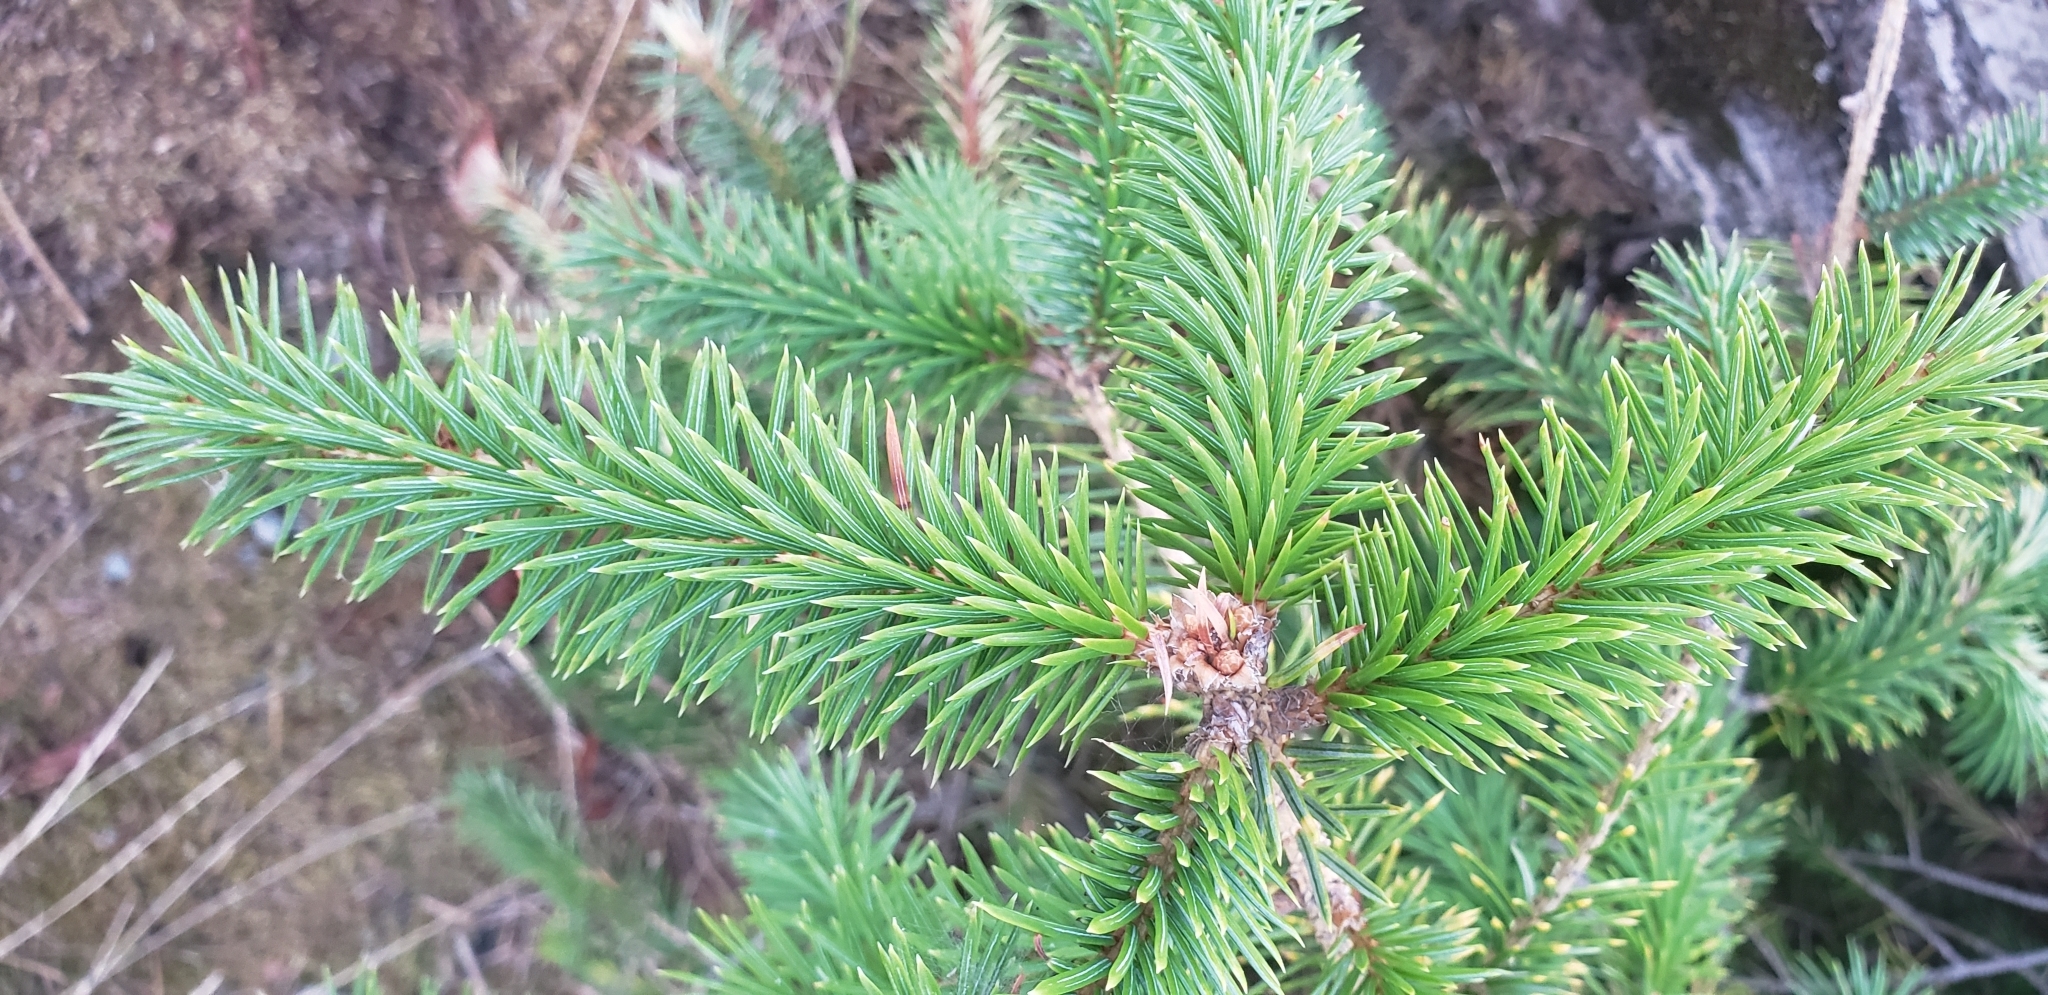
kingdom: Plantae
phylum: Tracheophyta
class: Pinopsida
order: Pinales
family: Pinaceae
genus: Picea
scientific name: Picea sitchensis
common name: Sitka spruce
